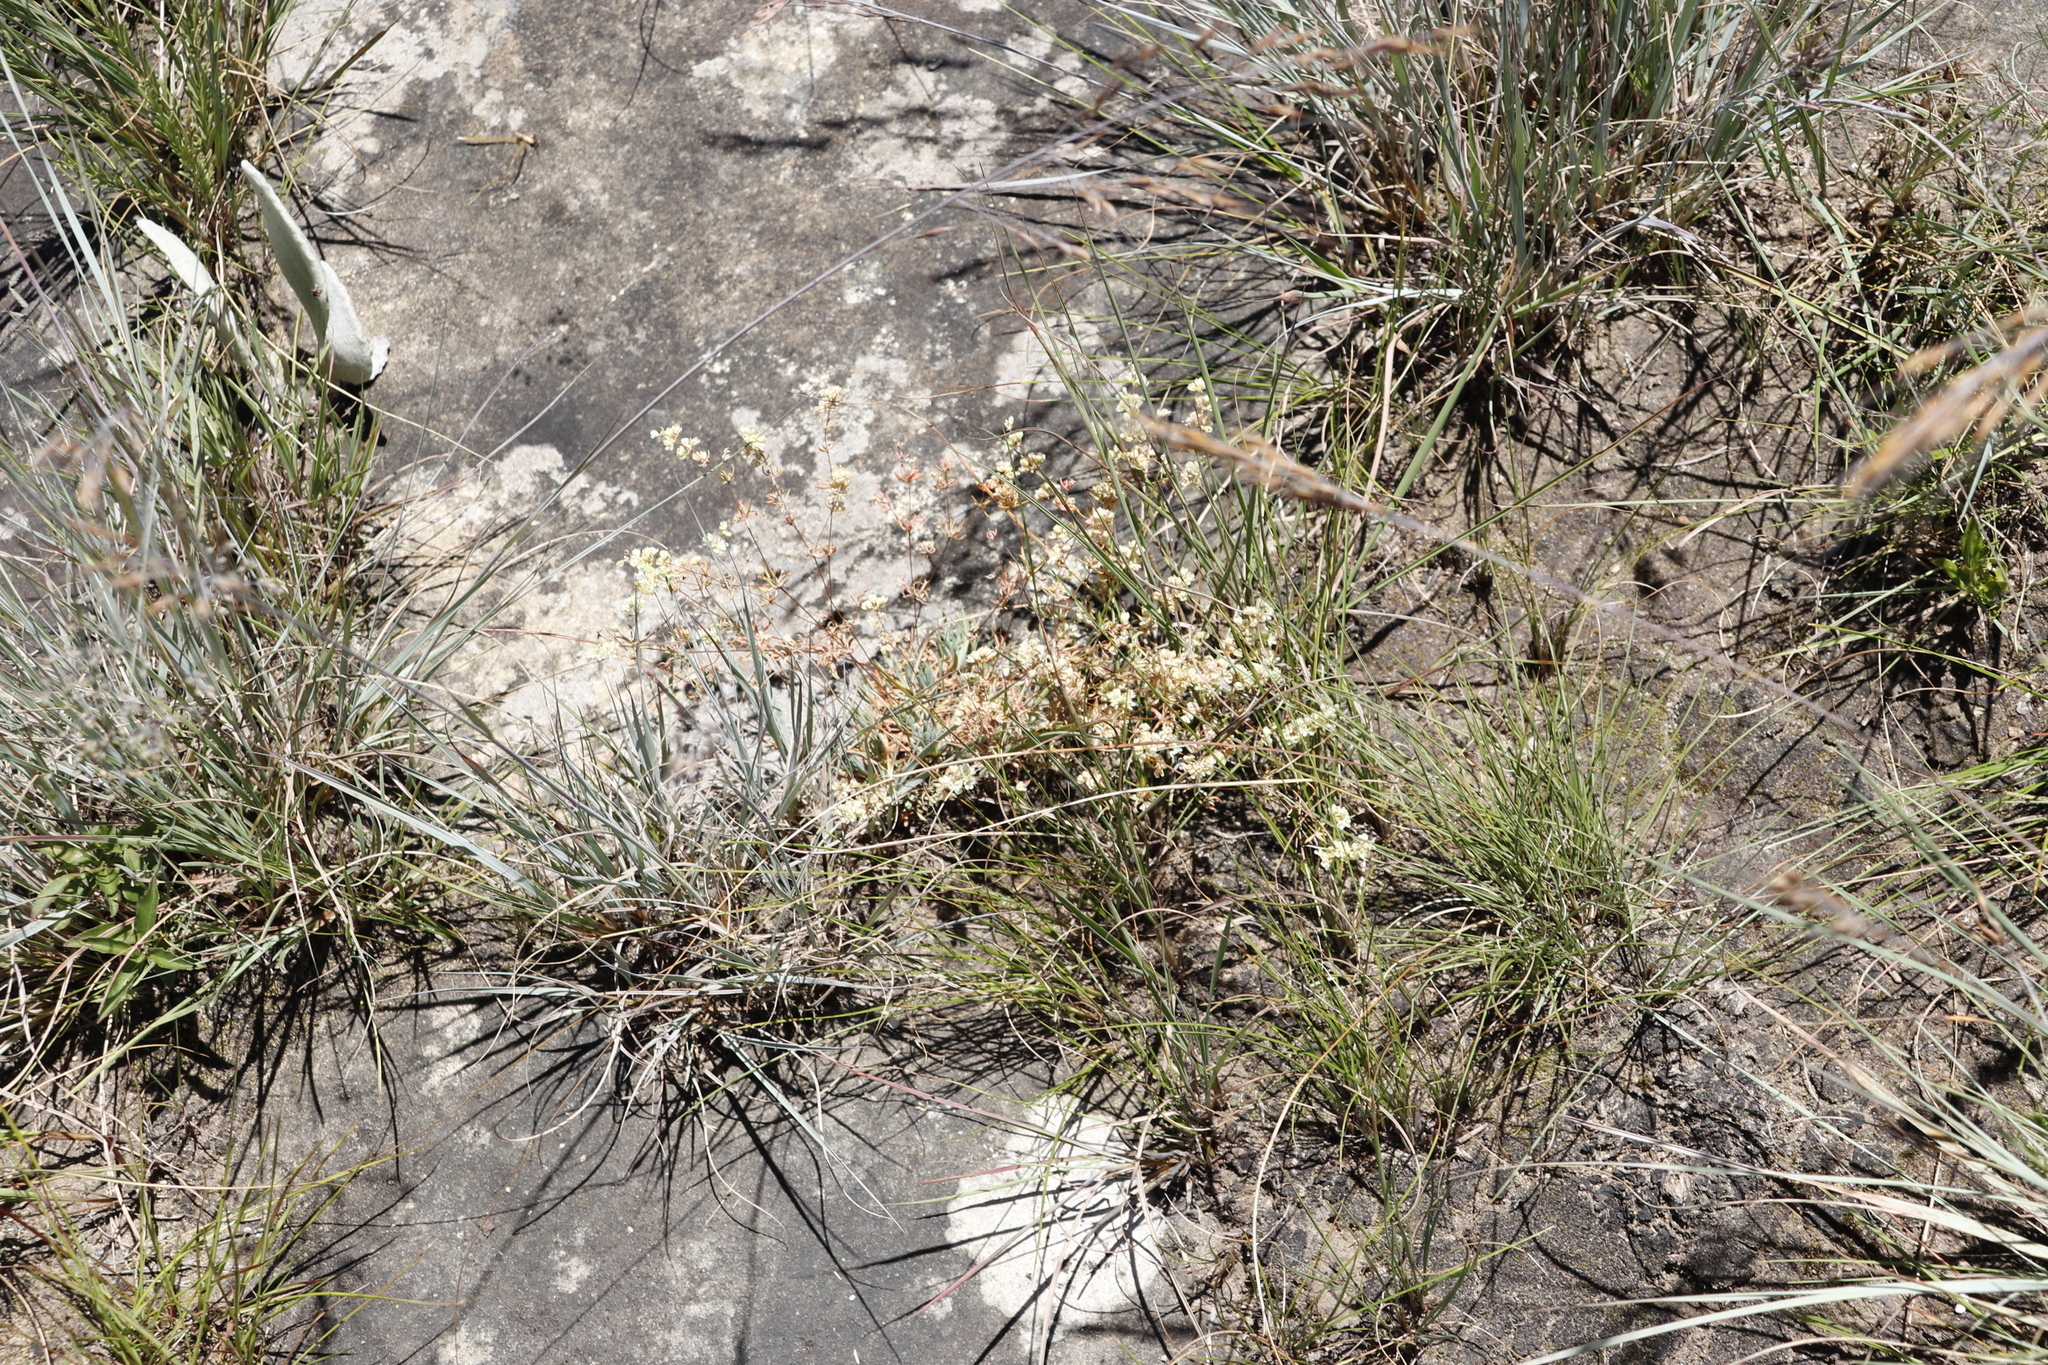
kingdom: Plantae
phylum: Tracheophyta
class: Magnoliopsida
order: Caryophyllales
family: Molluginaceae
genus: Psammotropha
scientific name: Psammotropha mucronata
